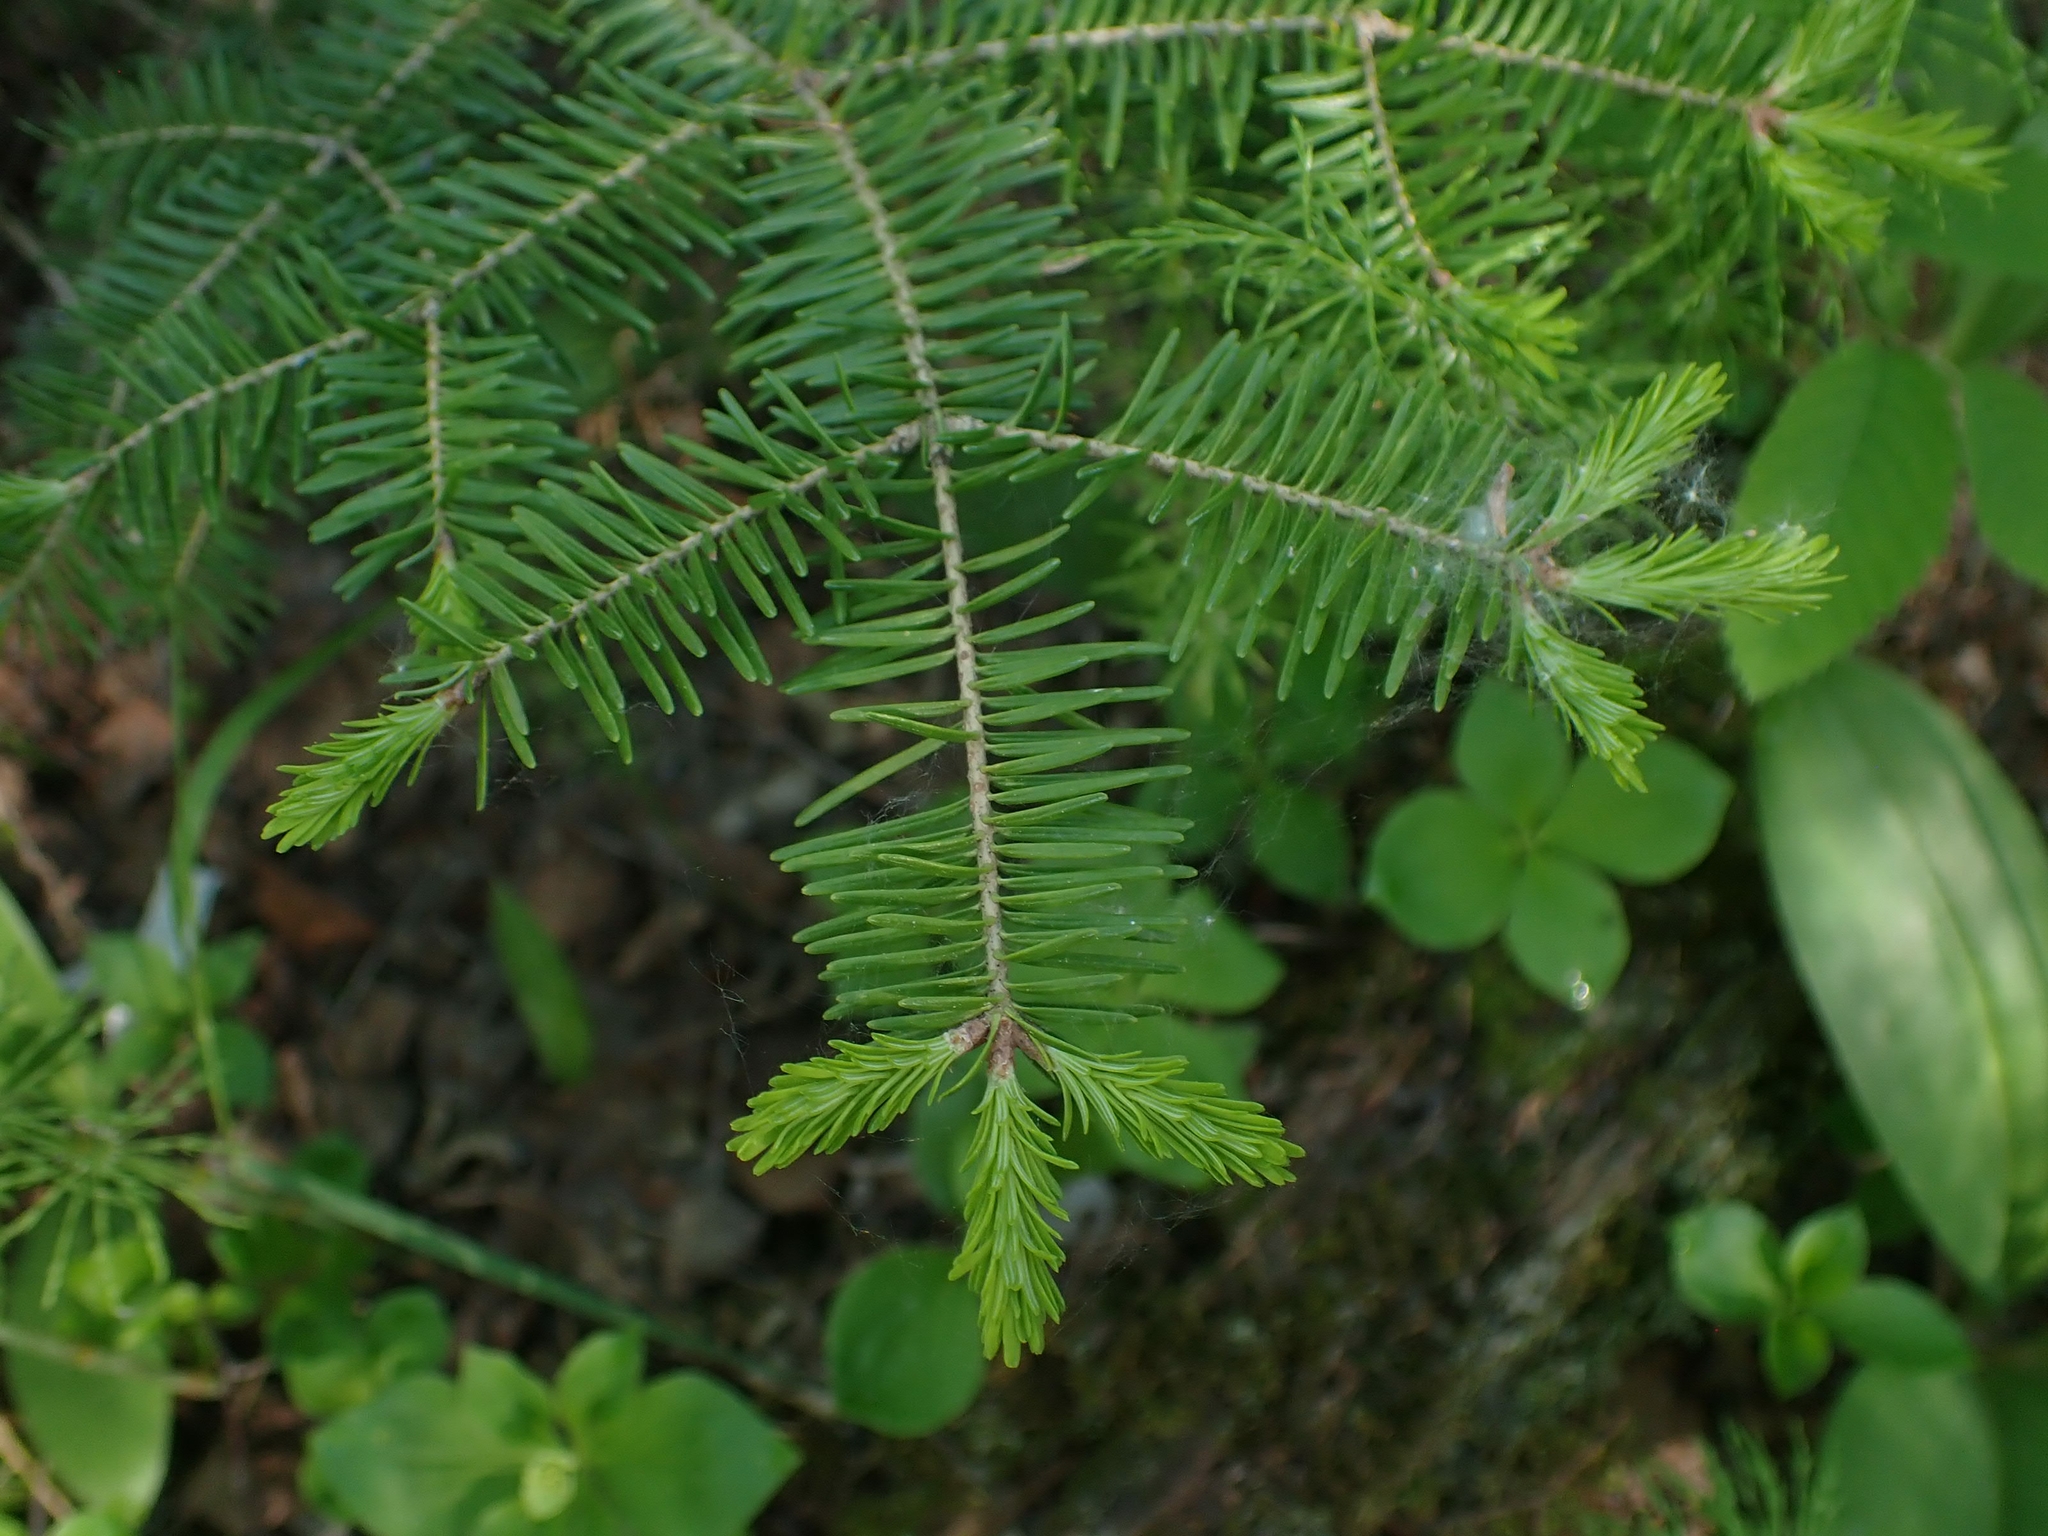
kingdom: Plantae
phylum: Tracheophyta
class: Pinopsida
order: Pinales
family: Pinaceae
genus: Abies
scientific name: Abies balsamea
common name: Balsam fir
